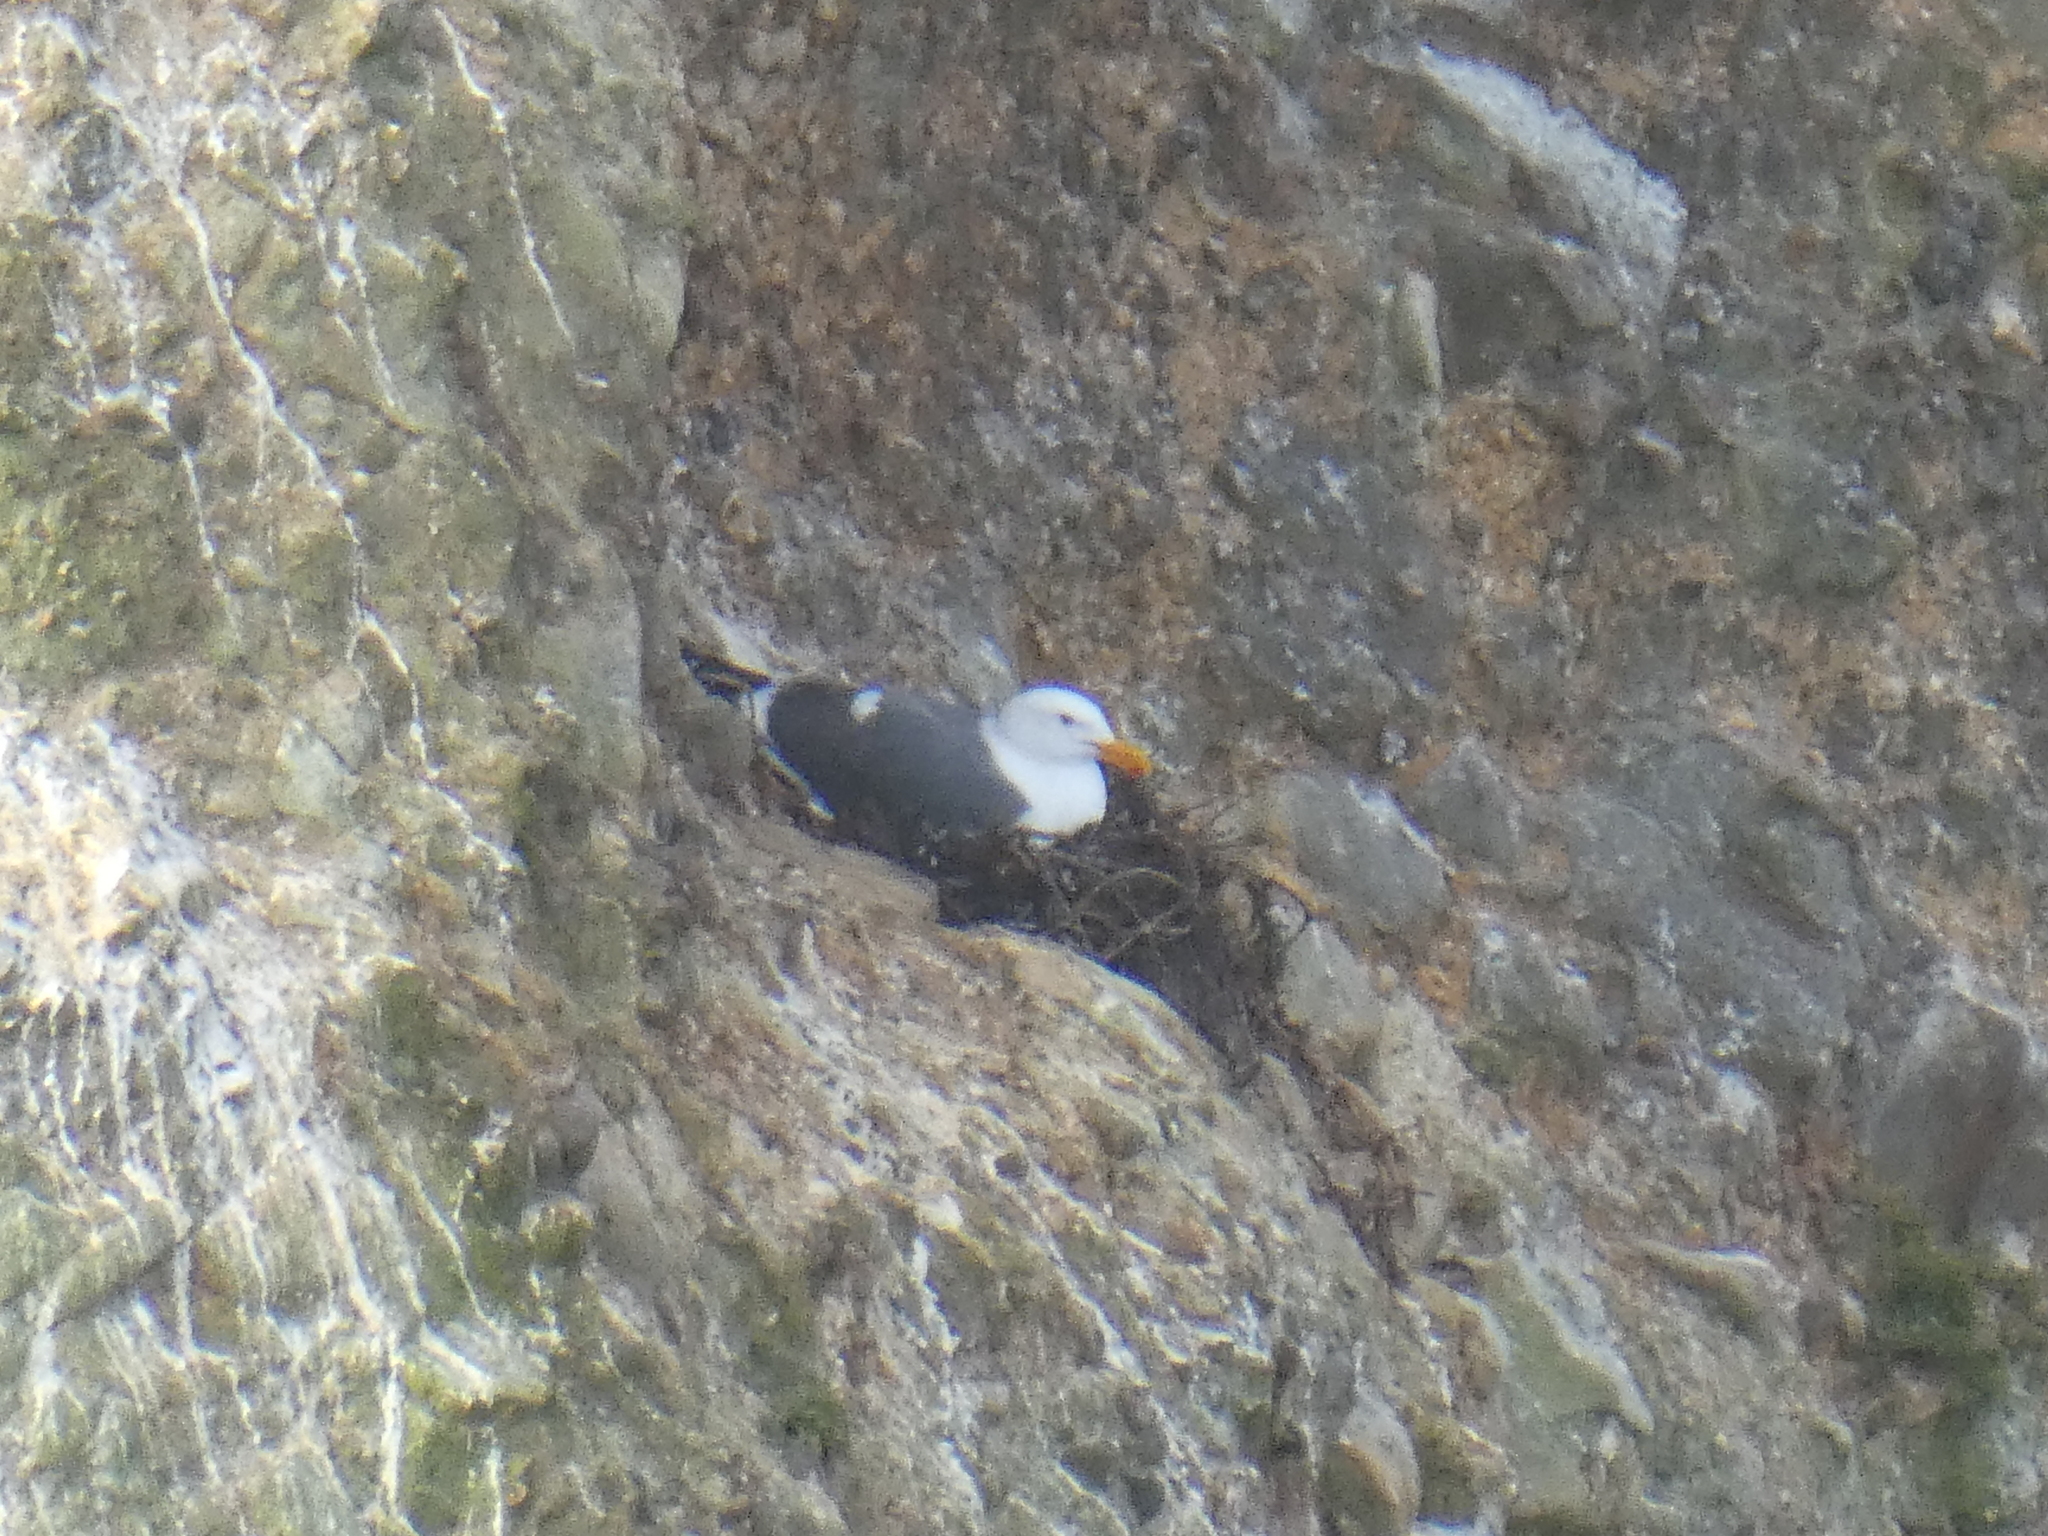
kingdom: Animalia
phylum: Chordata
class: Aves
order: Charadriiformes
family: Laridae
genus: Larus
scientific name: Larus occidentalis
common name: Western gull
